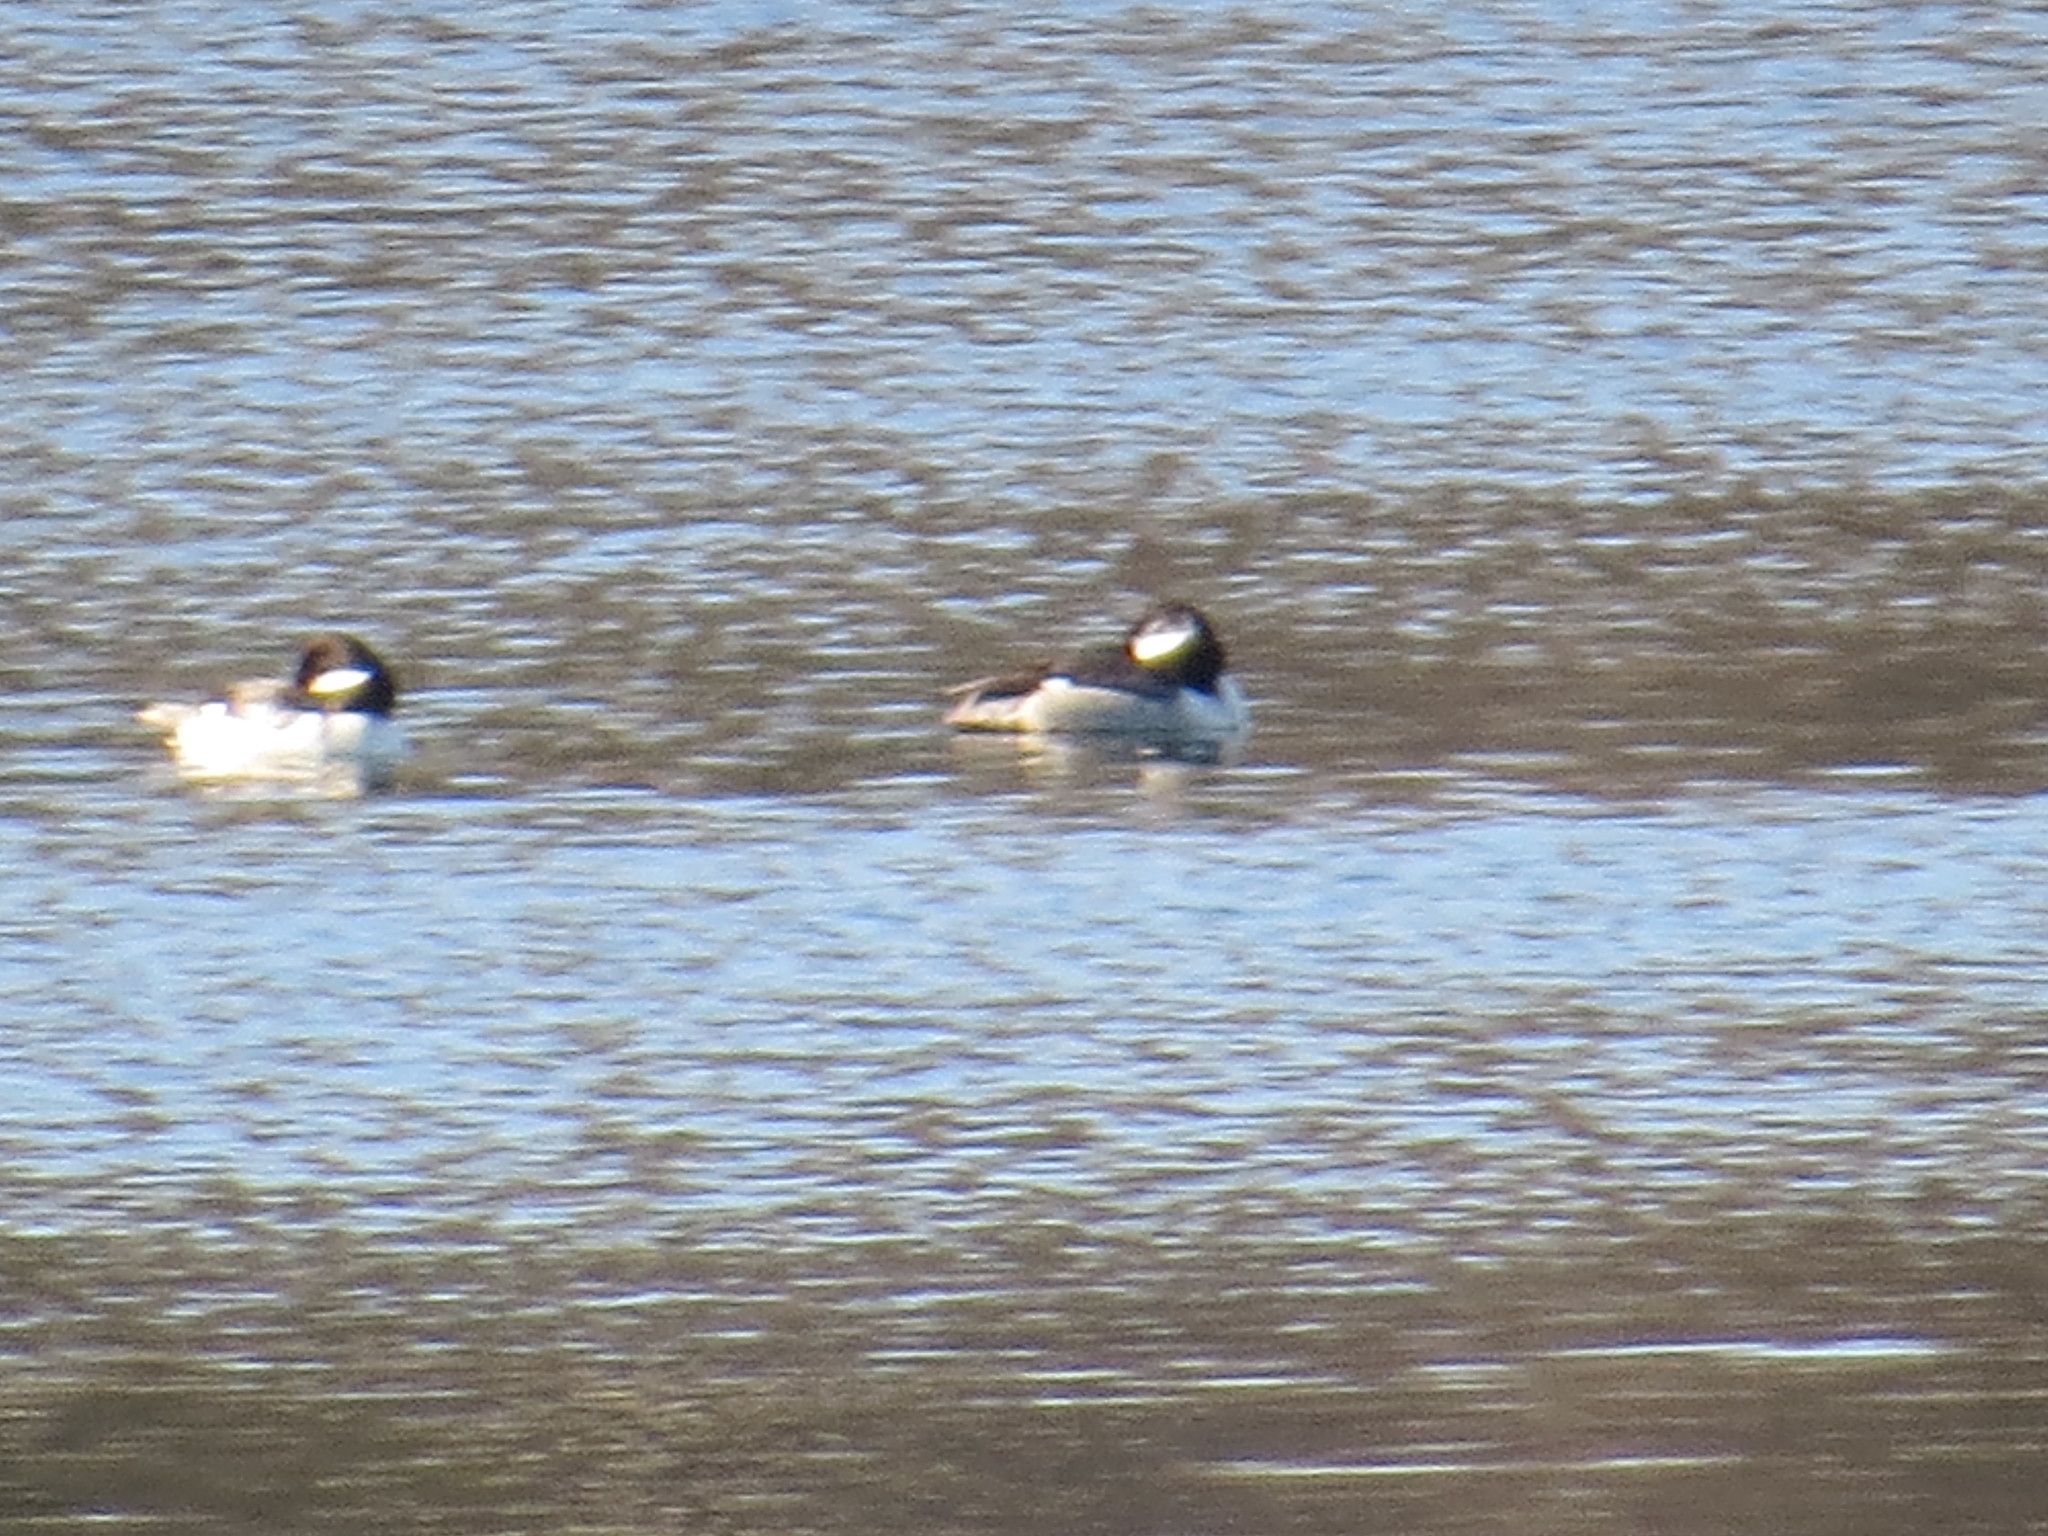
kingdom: Animalia
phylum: Chordata
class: Aves
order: Anseriformes
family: Anatidae
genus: Bucephala
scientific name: Bucephala albeola
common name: Bufflehead
